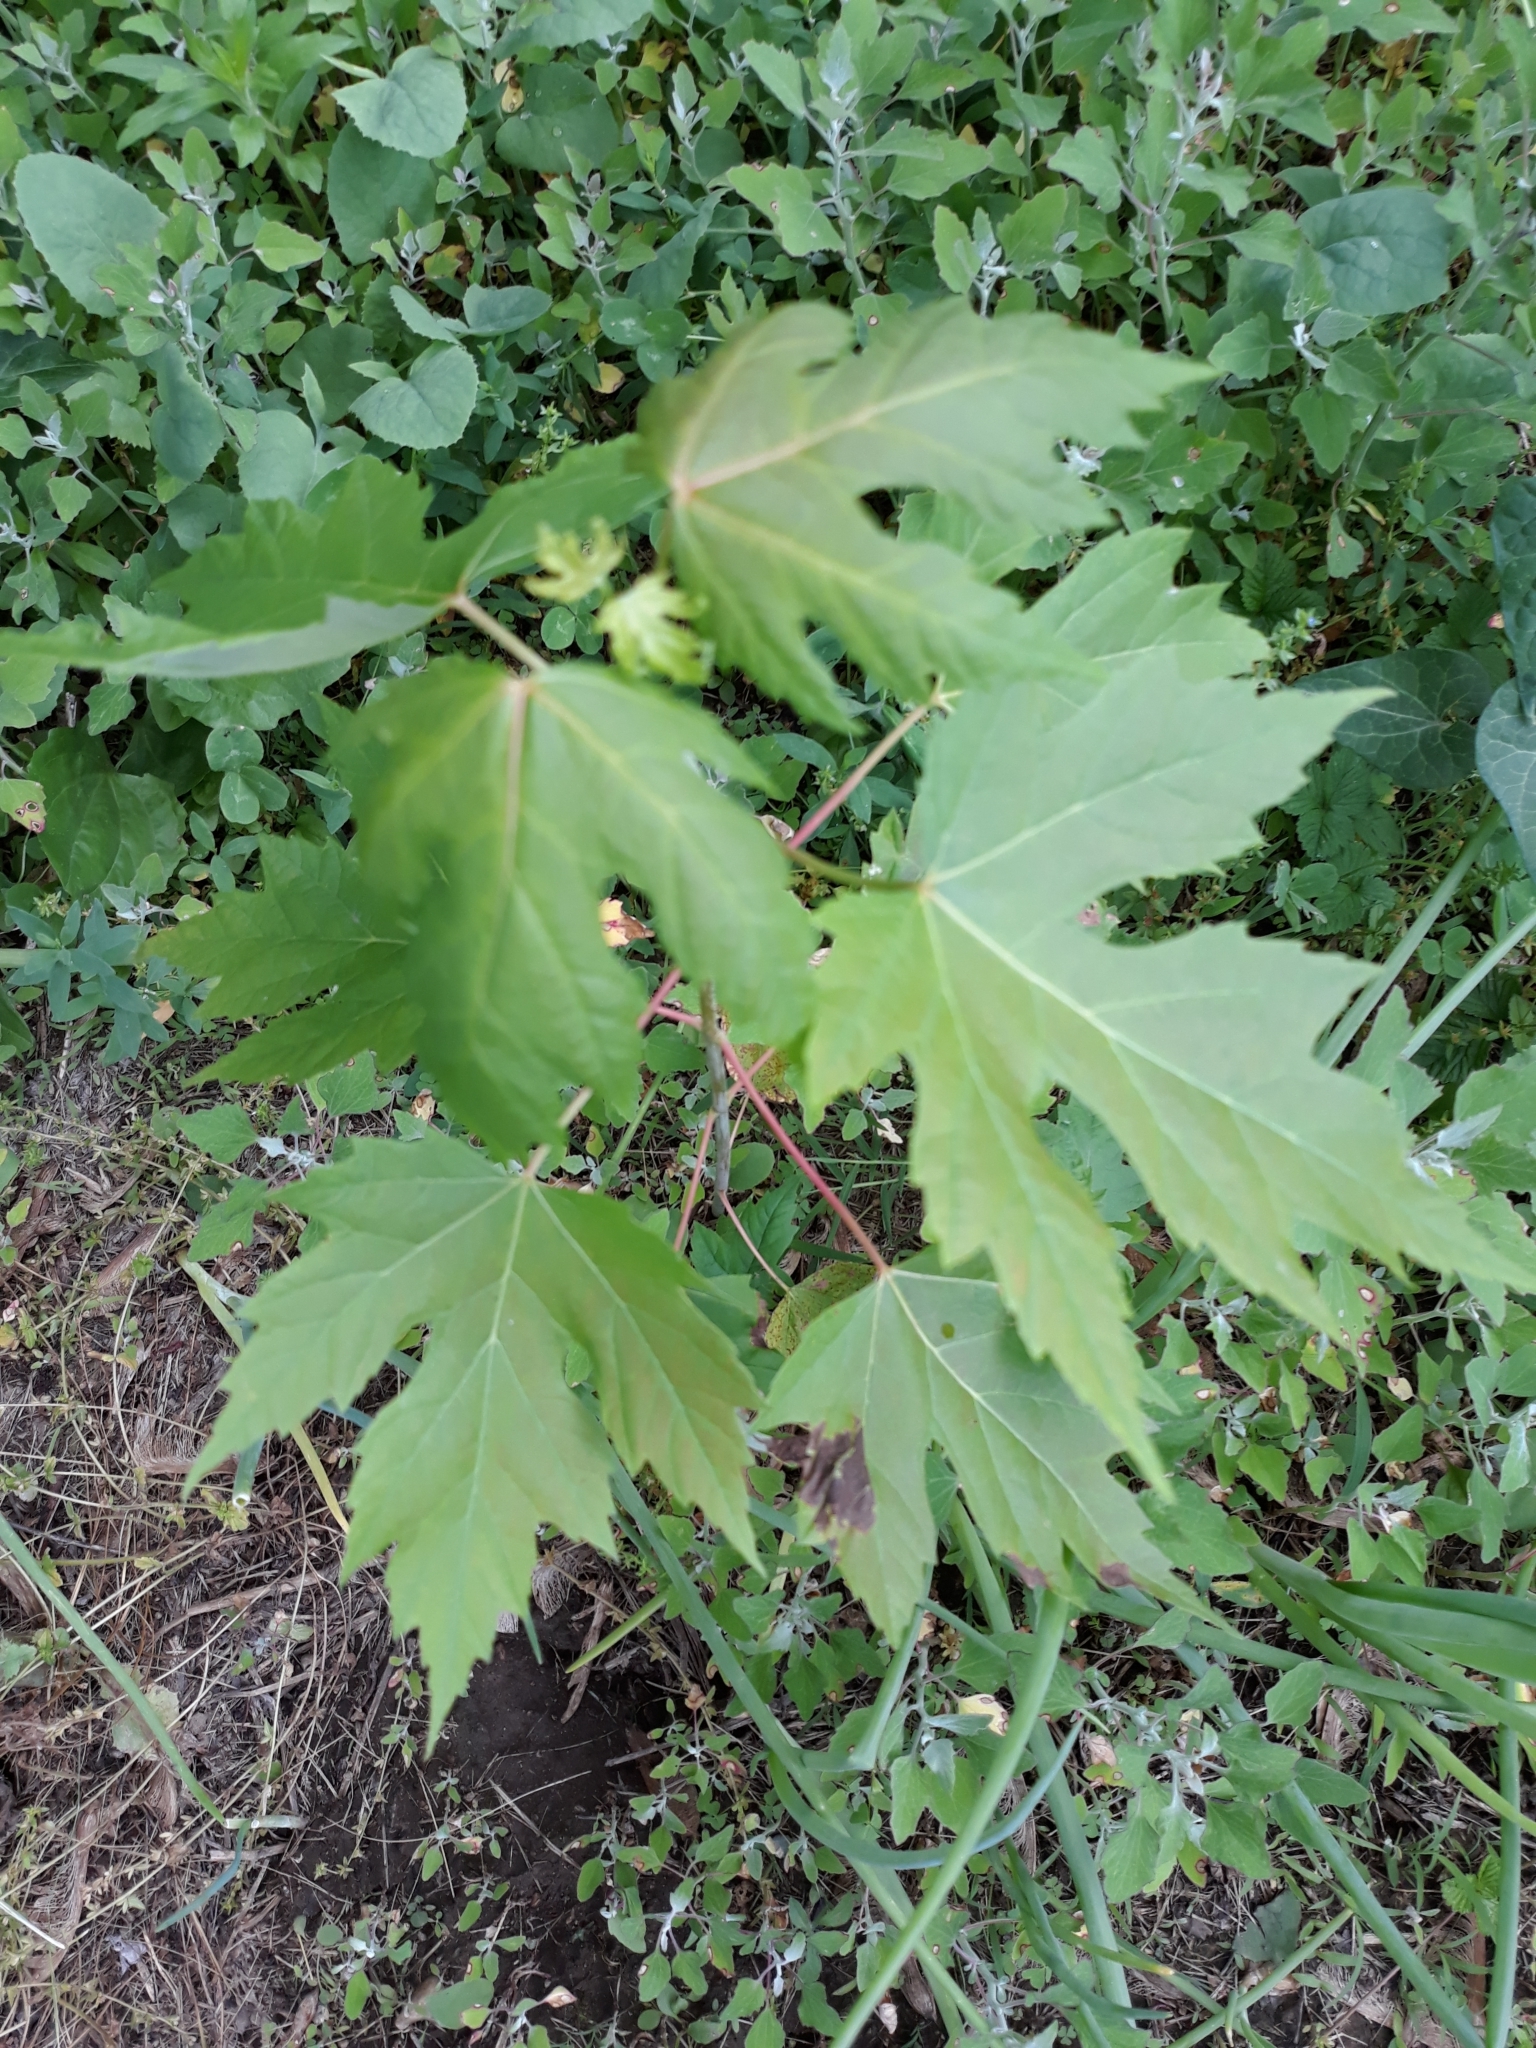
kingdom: Plantae
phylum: Tracheophyta
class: Magnoliopsida
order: Sapindales
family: Sapindaceae
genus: Acer
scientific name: Acer saccharinum
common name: Silver maple
